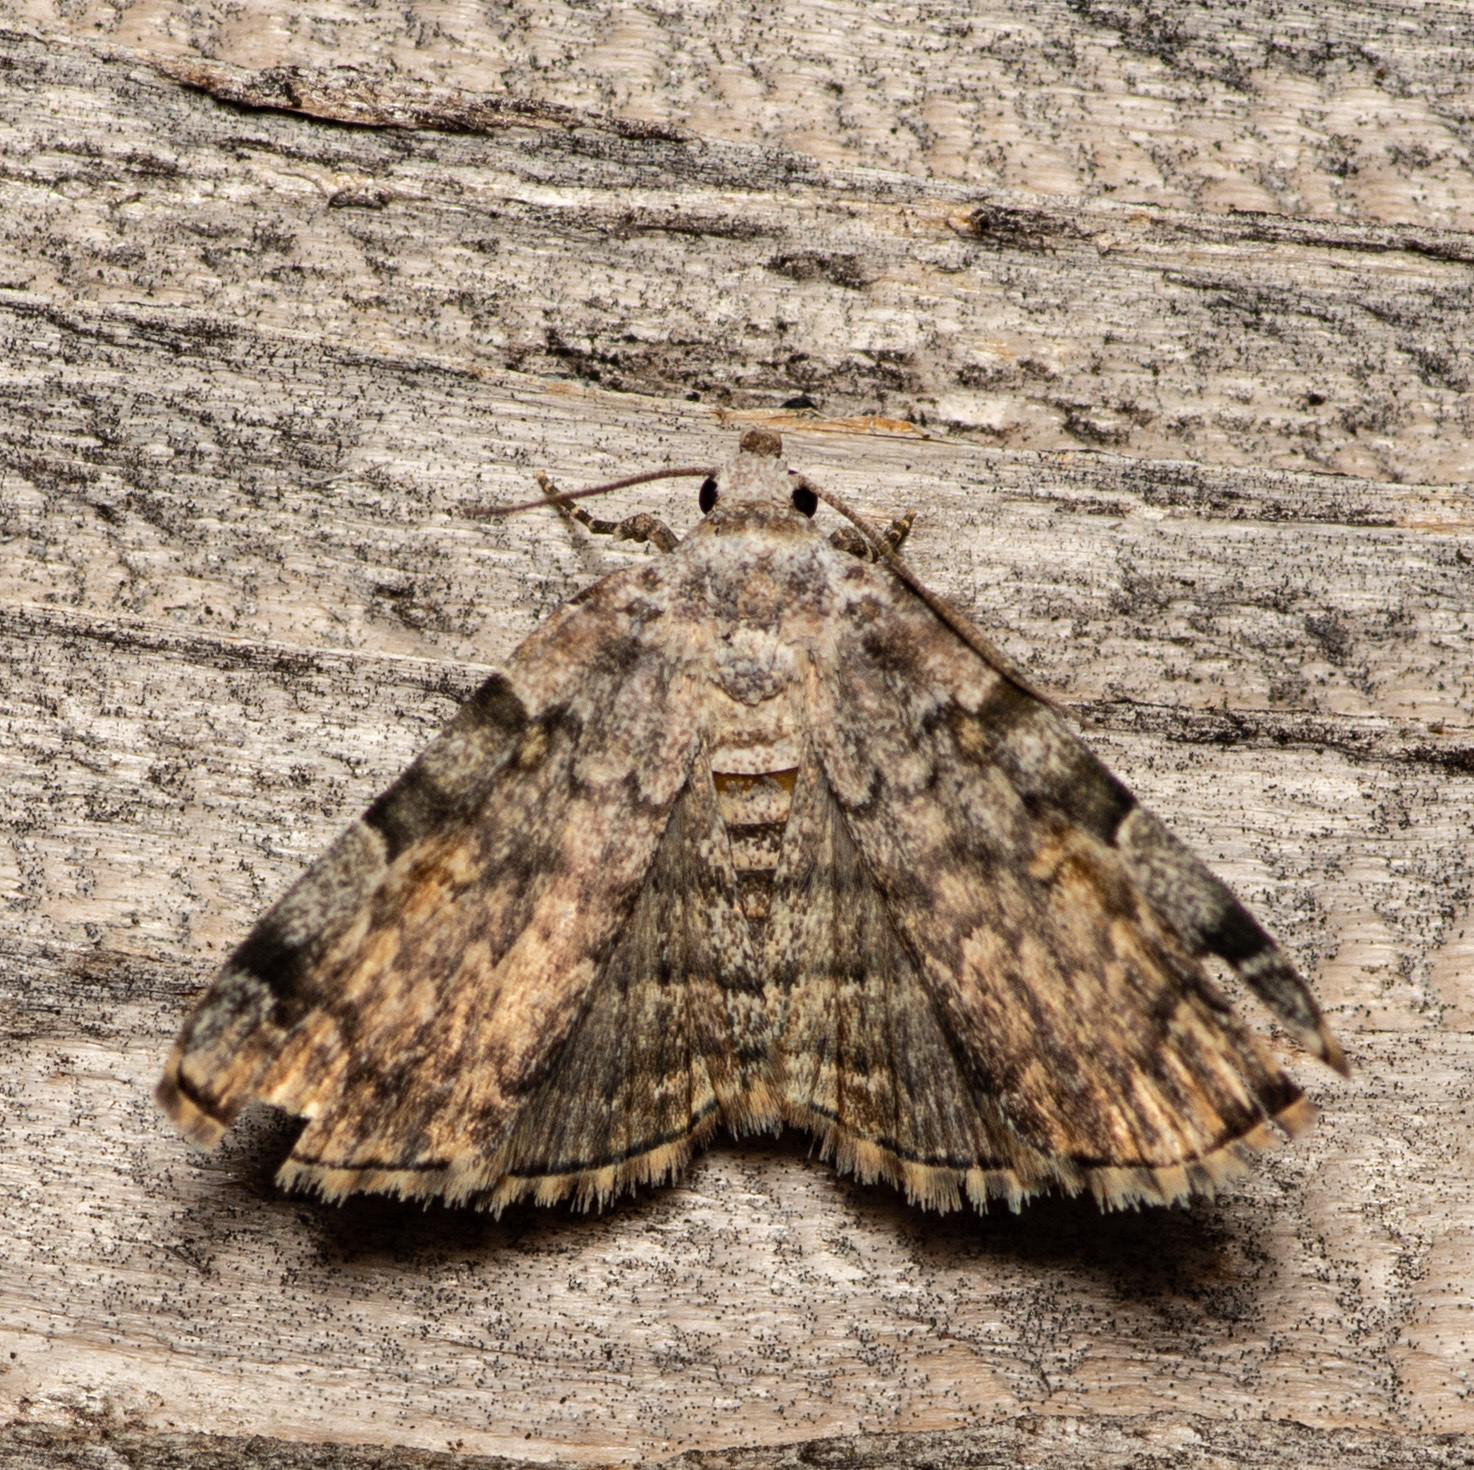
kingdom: Animalia
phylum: Arthropoda
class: Insecta
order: Lepidoptera
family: Erebidae
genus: Idia
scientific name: Idia americalis
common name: American idia moth
